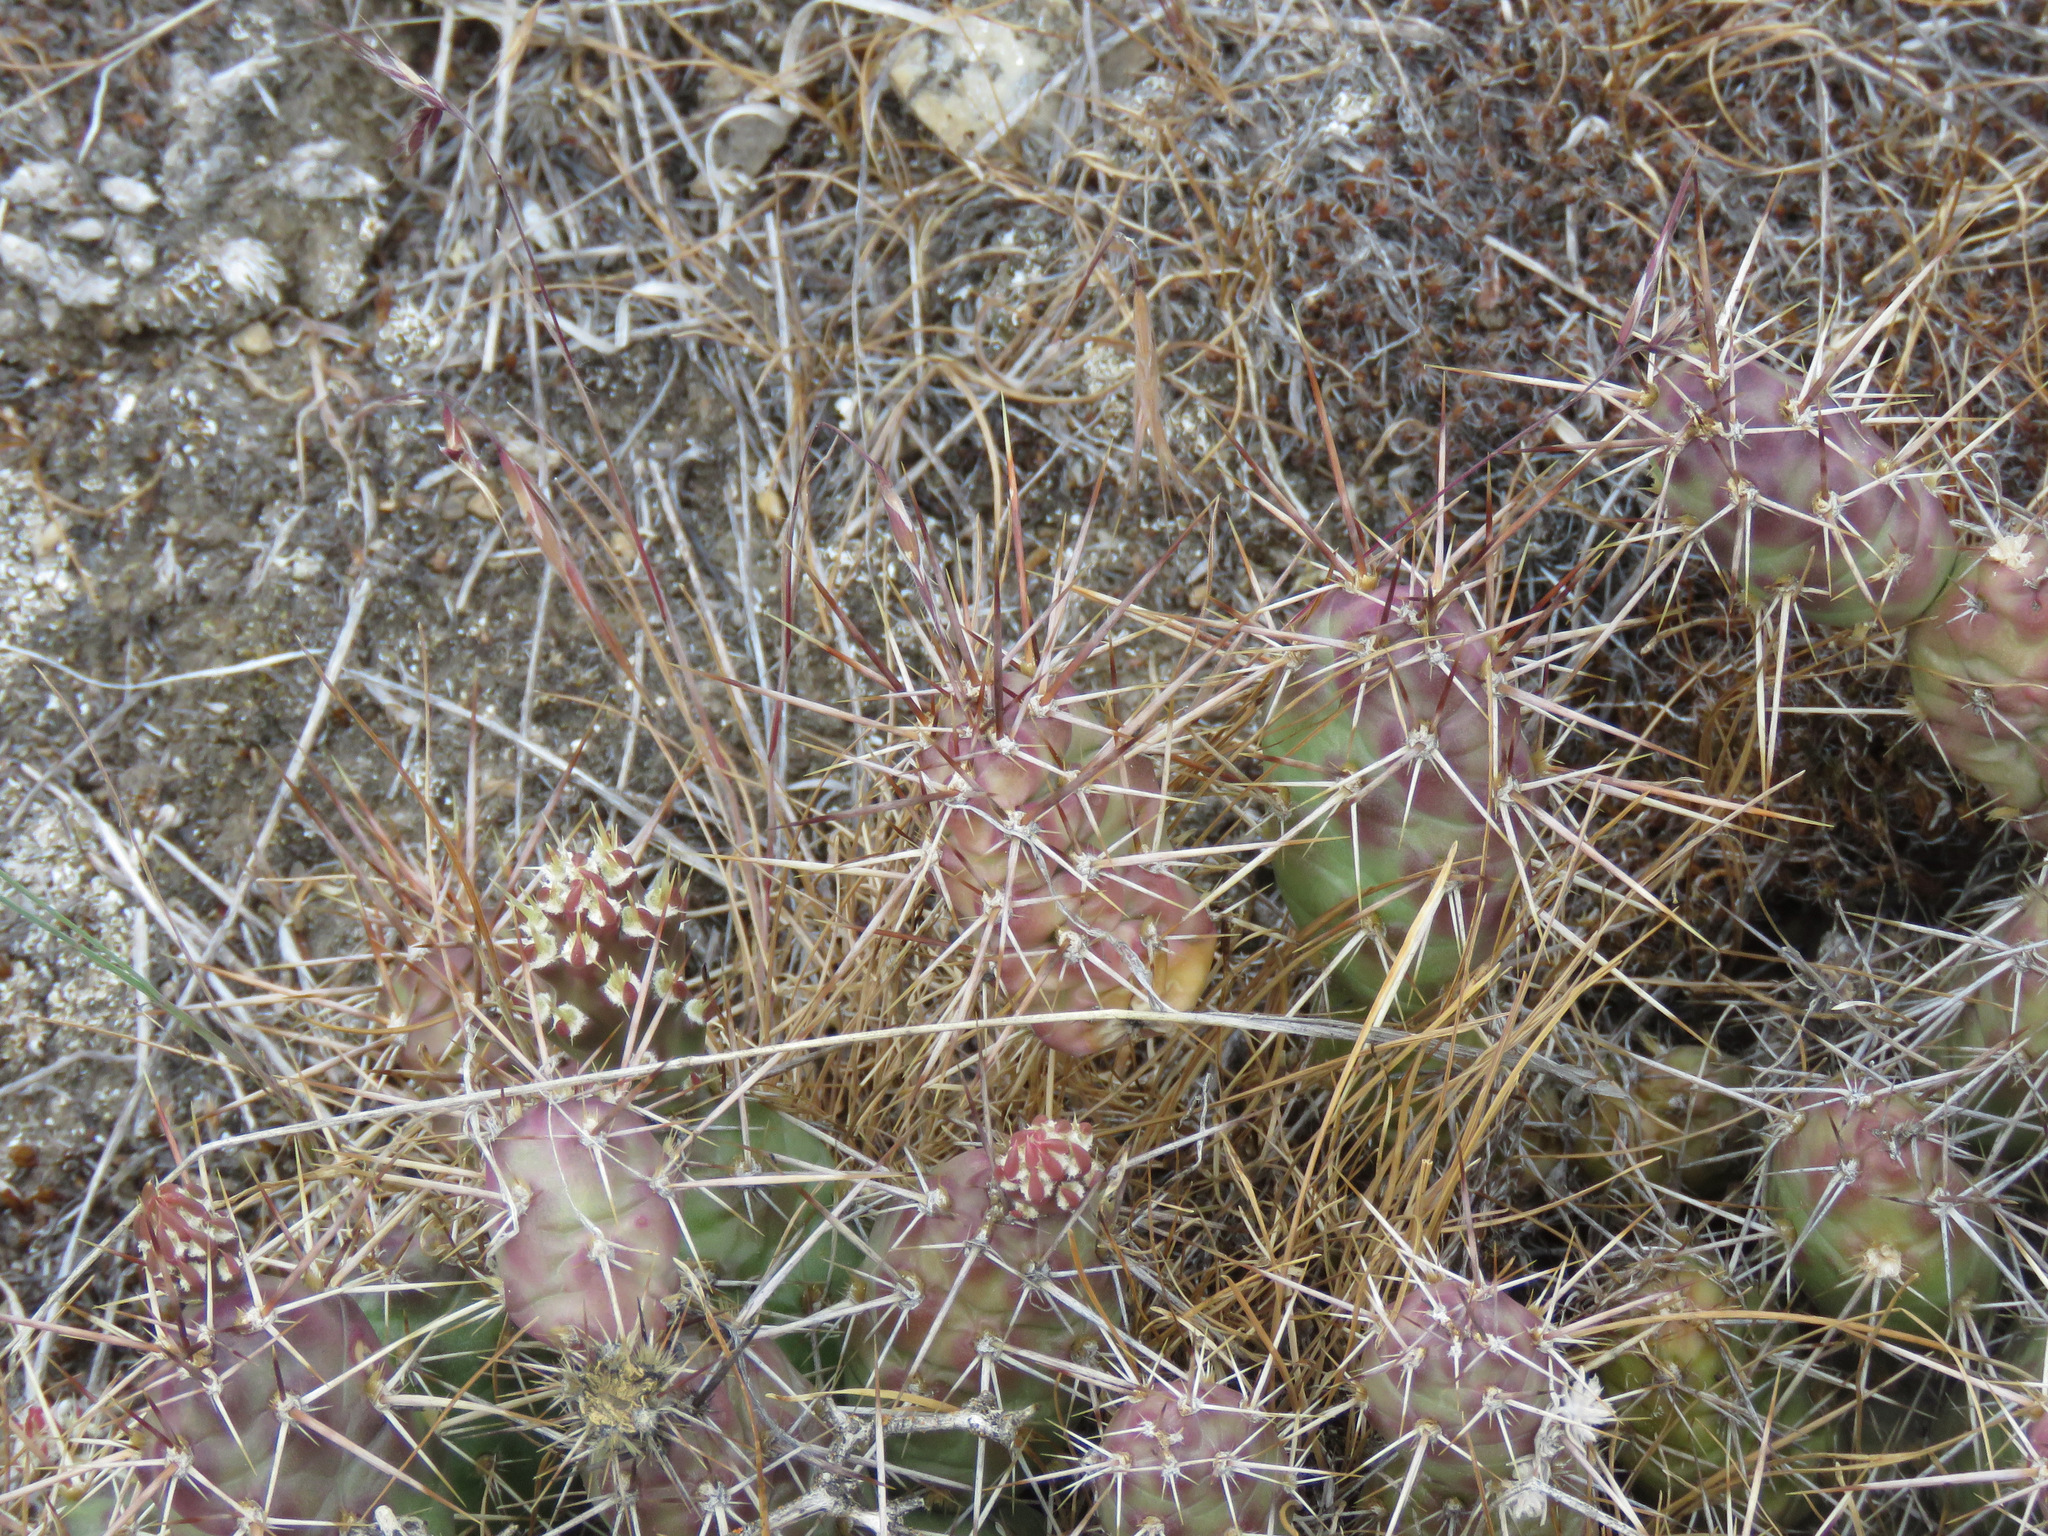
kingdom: Plantae
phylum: Tracheophyta
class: Magnoliopsida
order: Caryophyllales
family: Cactaceae
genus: Opuntia
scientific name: Opuntia fragilis
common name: Brittle cactus
